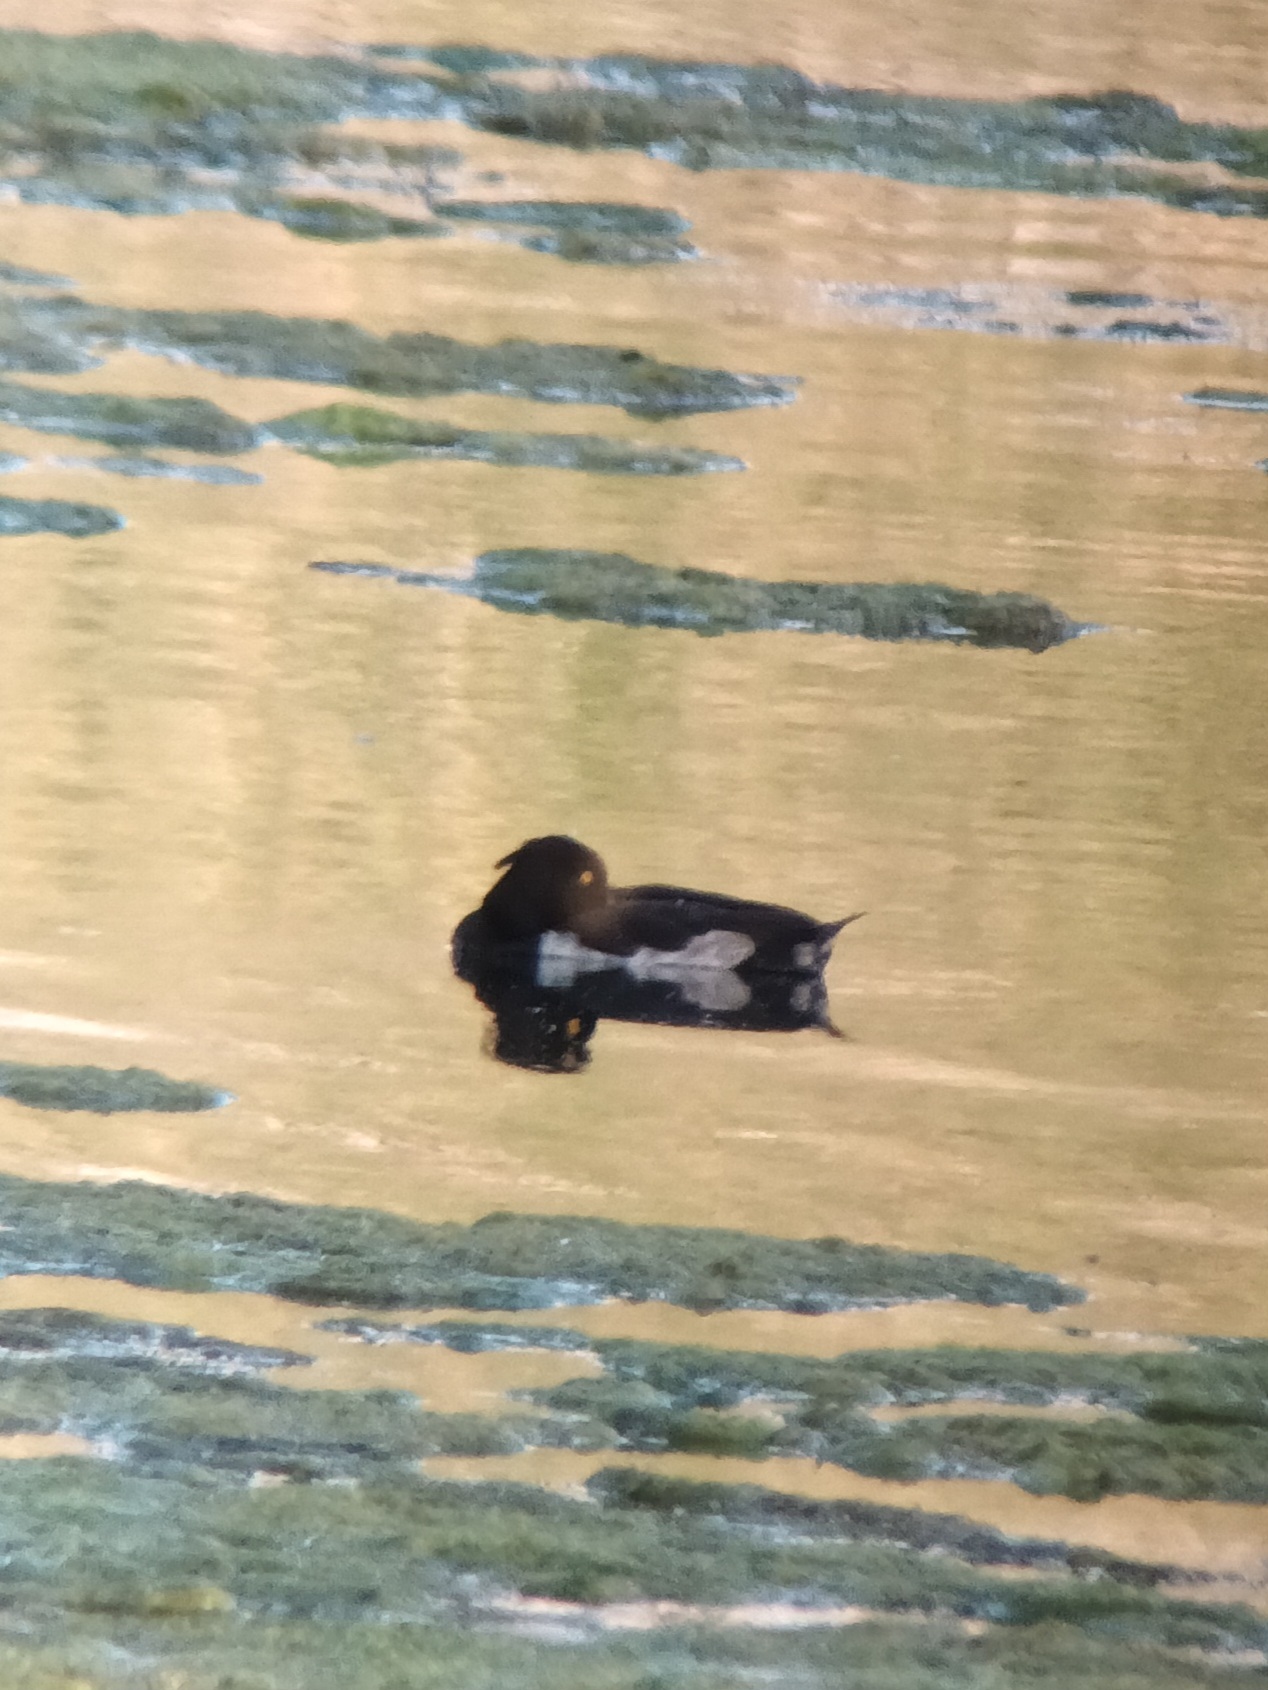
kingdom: Animalia
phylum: Chordata
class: Aves
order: Anseriformes
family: Anatidae
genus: Aythya
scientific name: Aythya fuligula
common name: Tufted duck
